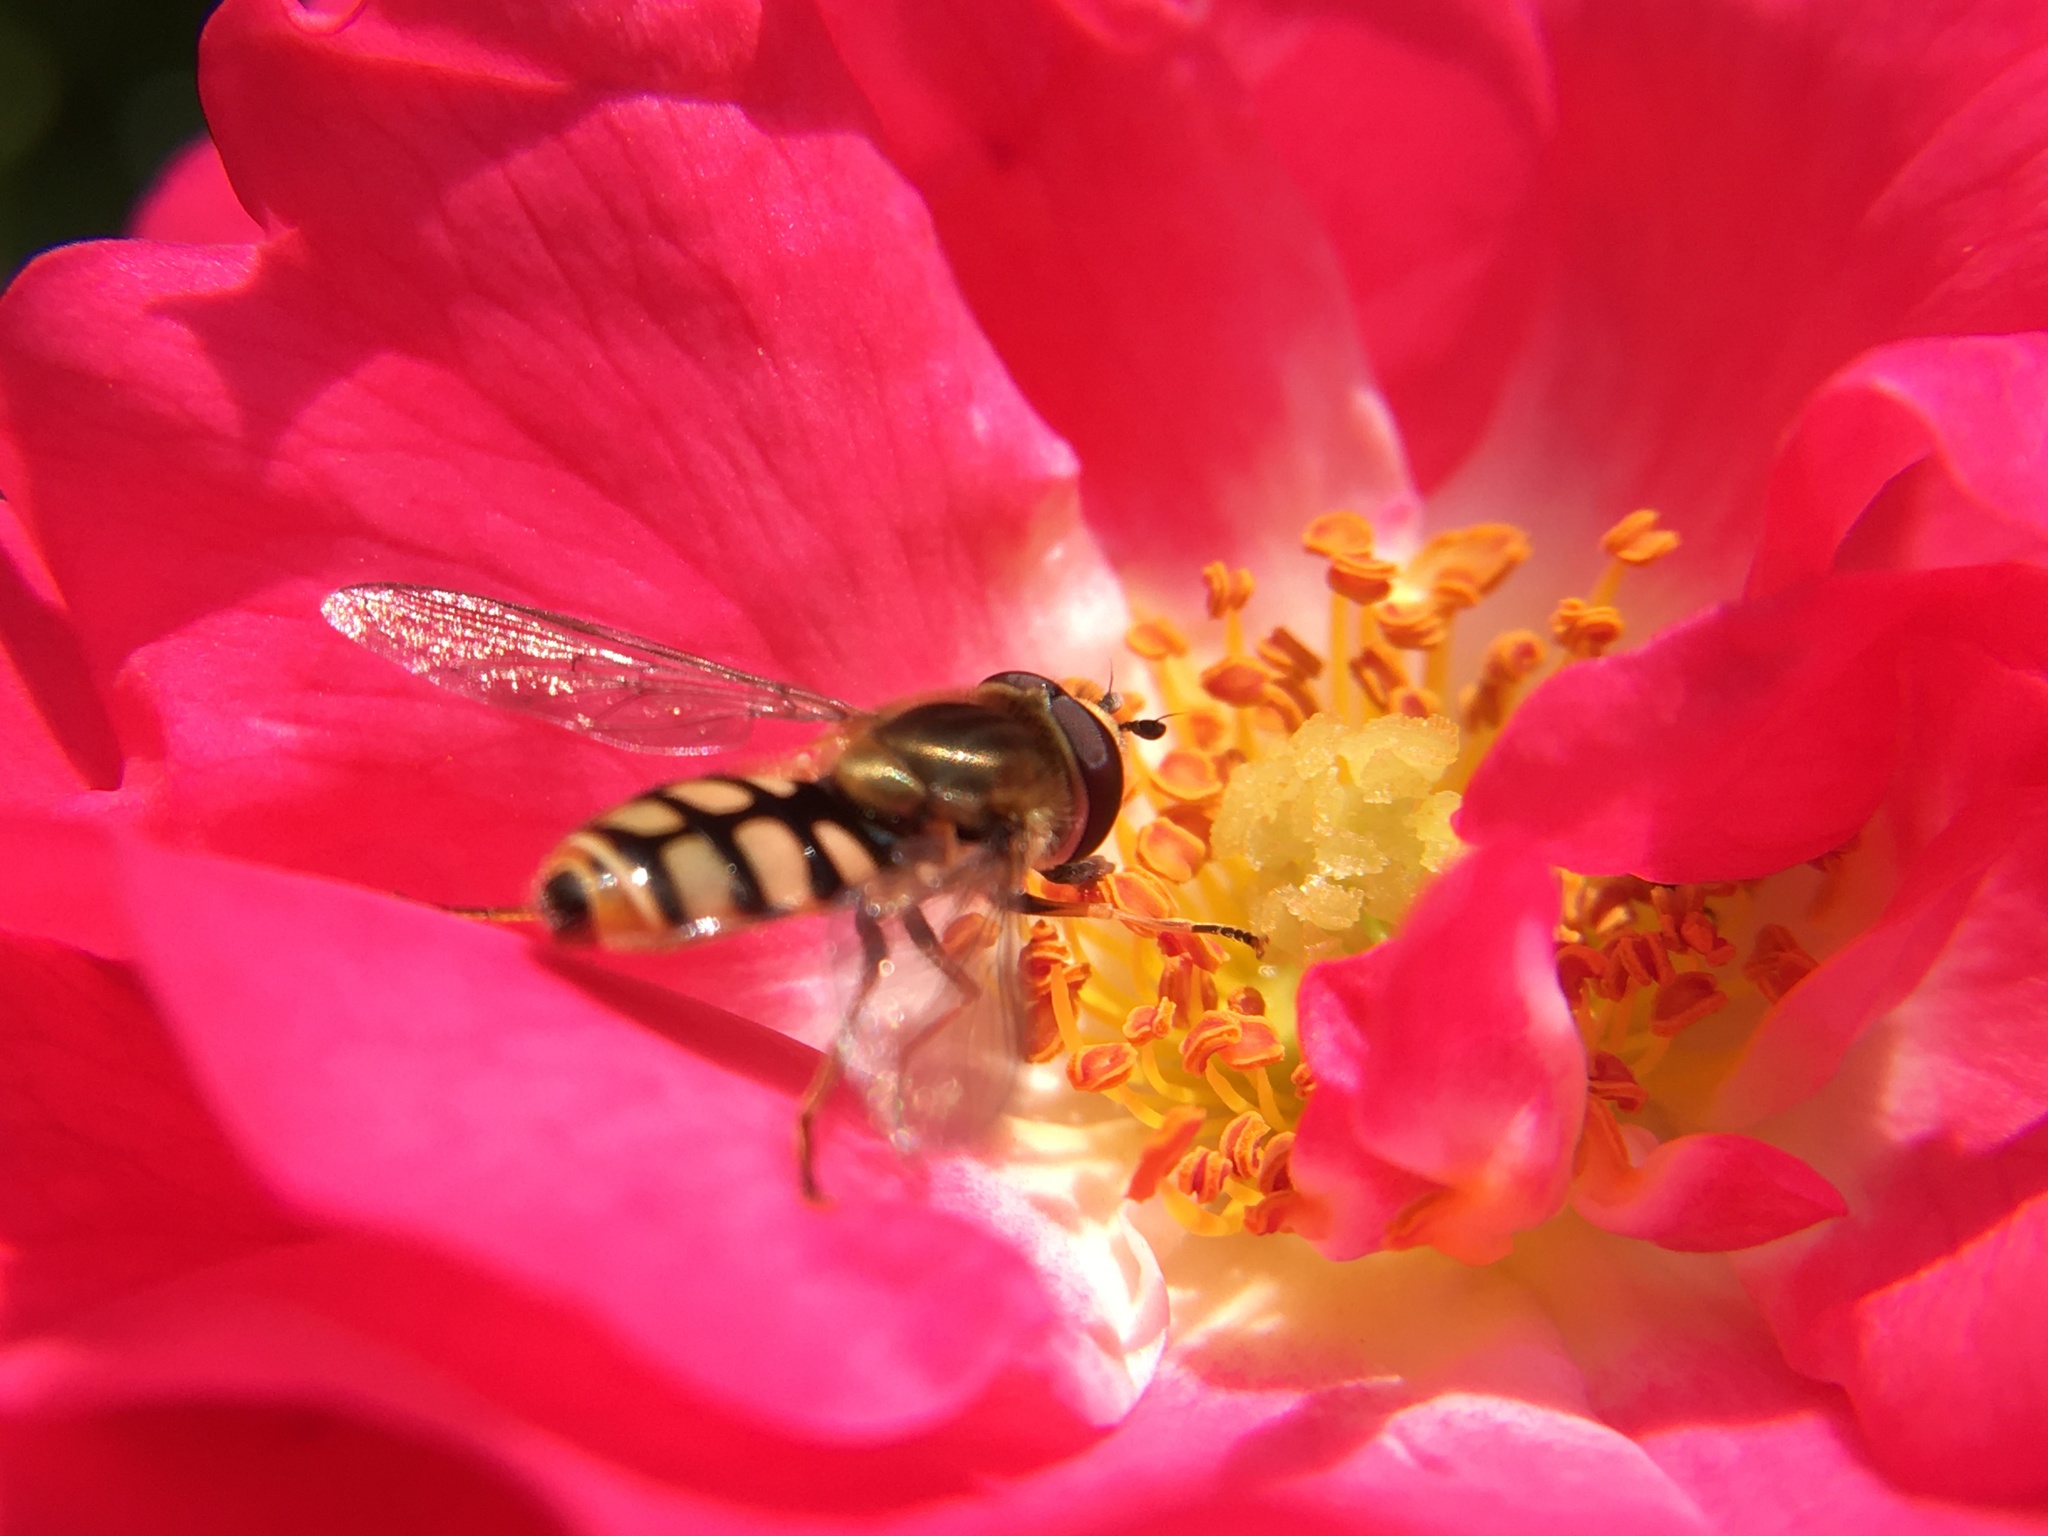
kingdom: Animalia
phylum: Arthropoda
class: Insecta
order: Diptera
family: Syrphidae
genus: Eupeodes
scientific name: Eupeodes corollae
